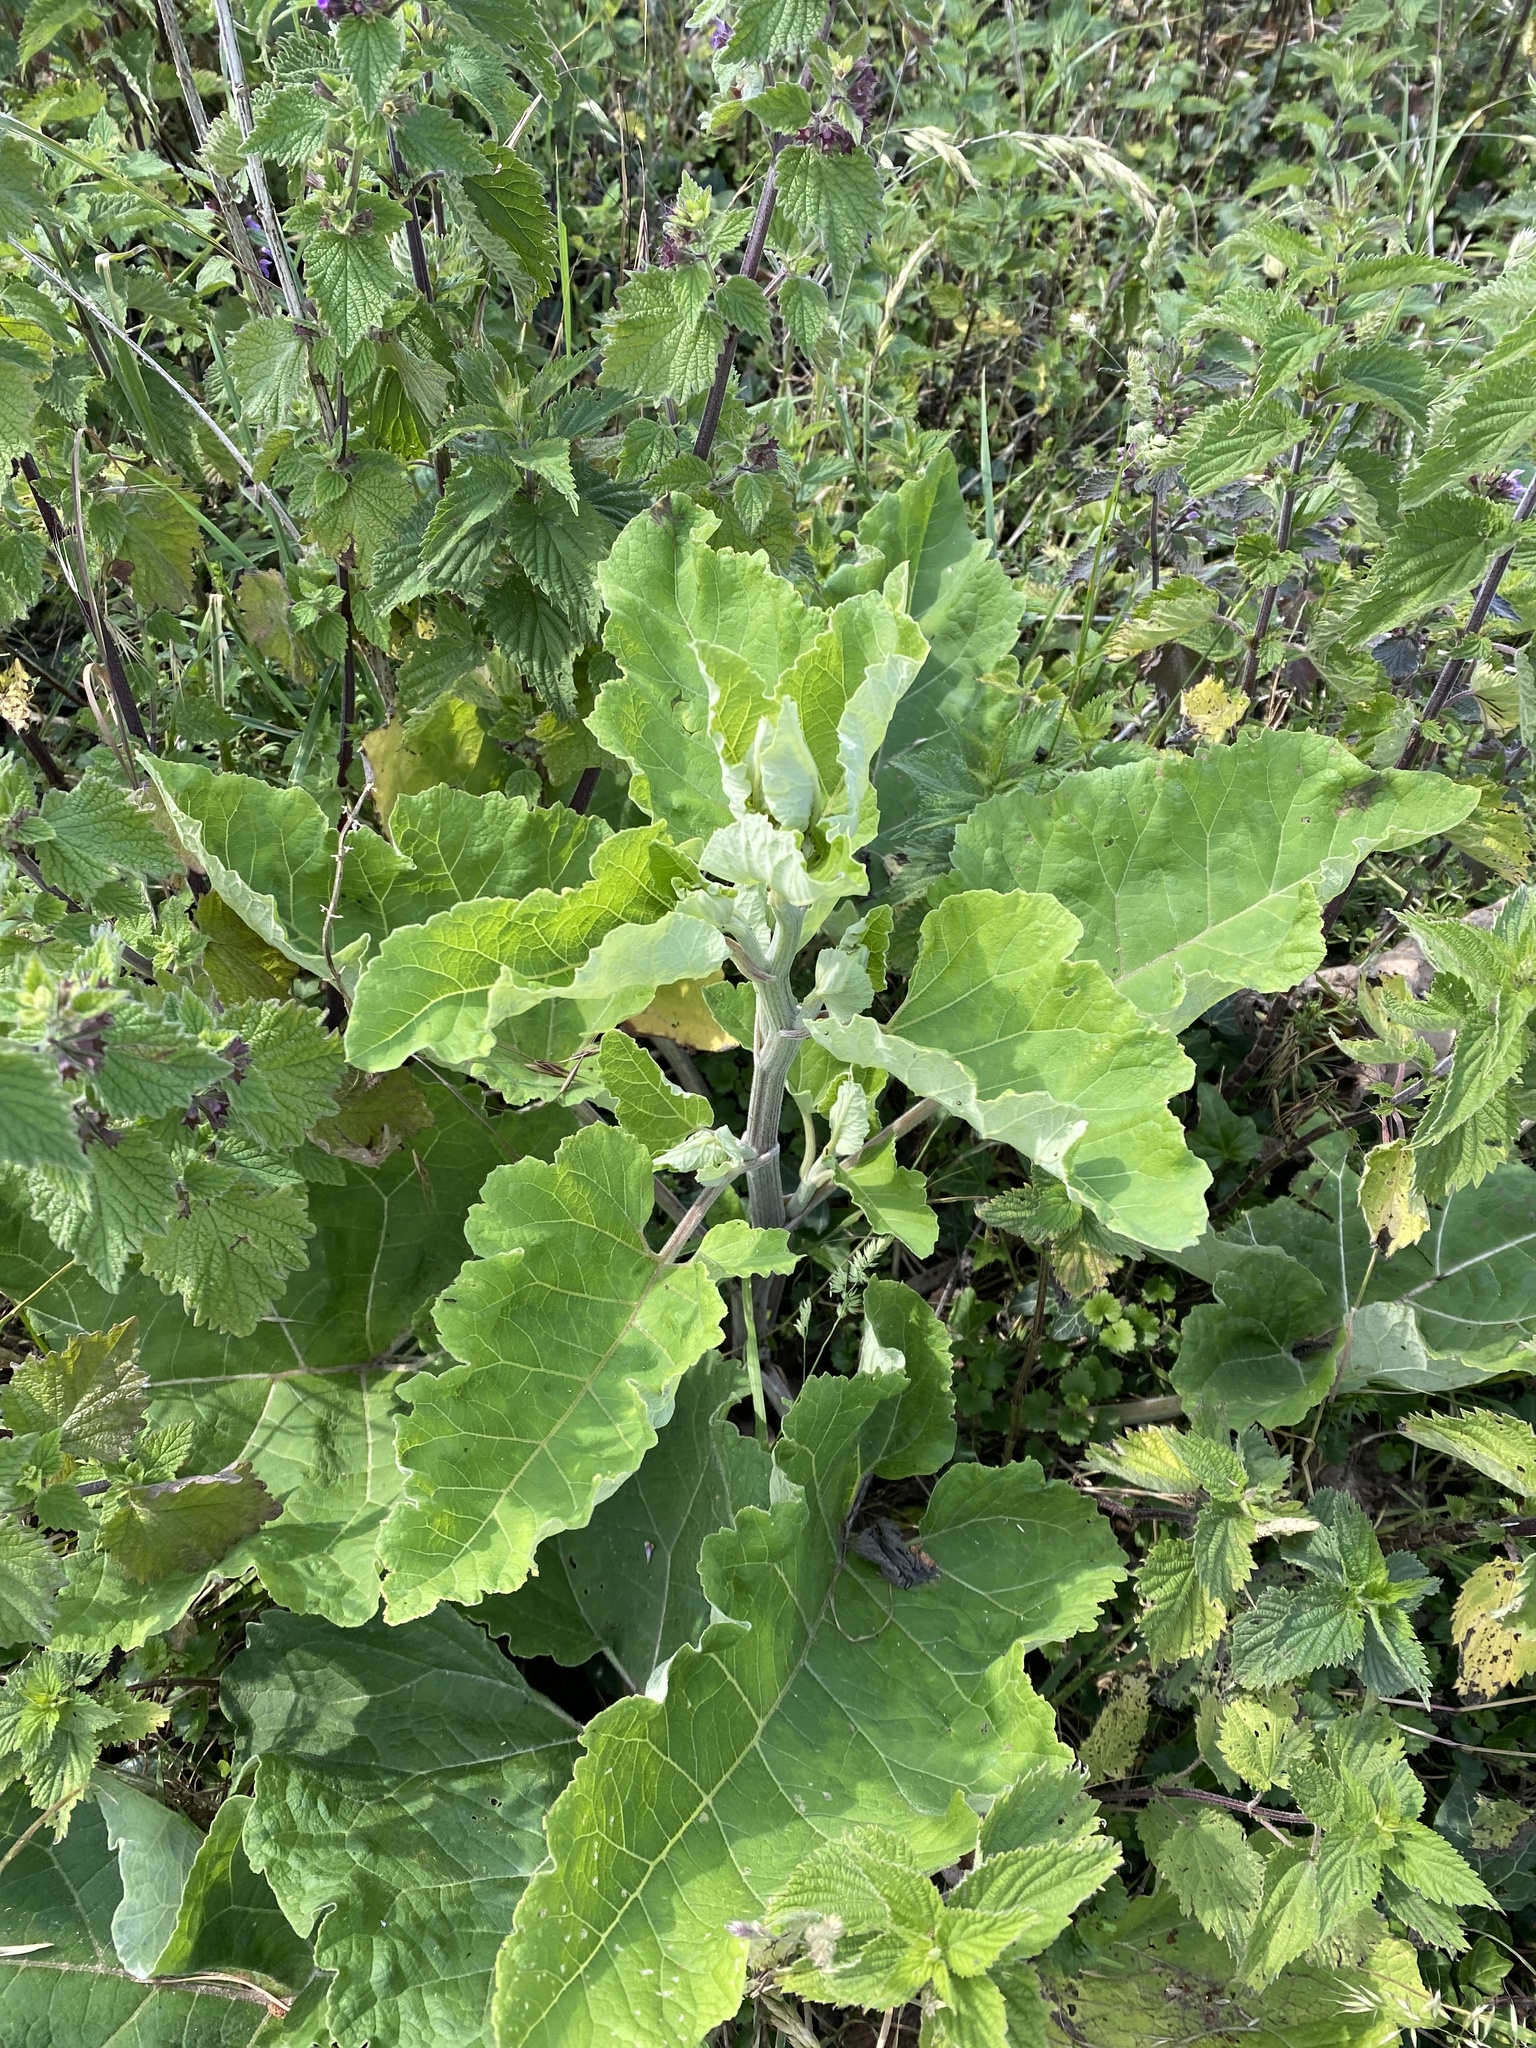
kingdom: Plantae
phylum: Tracheophyta
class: Magnoliopsida
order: Asterales
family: Asteraceae
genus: Arctium
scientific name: Arctium minus
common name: Lesser burdock
